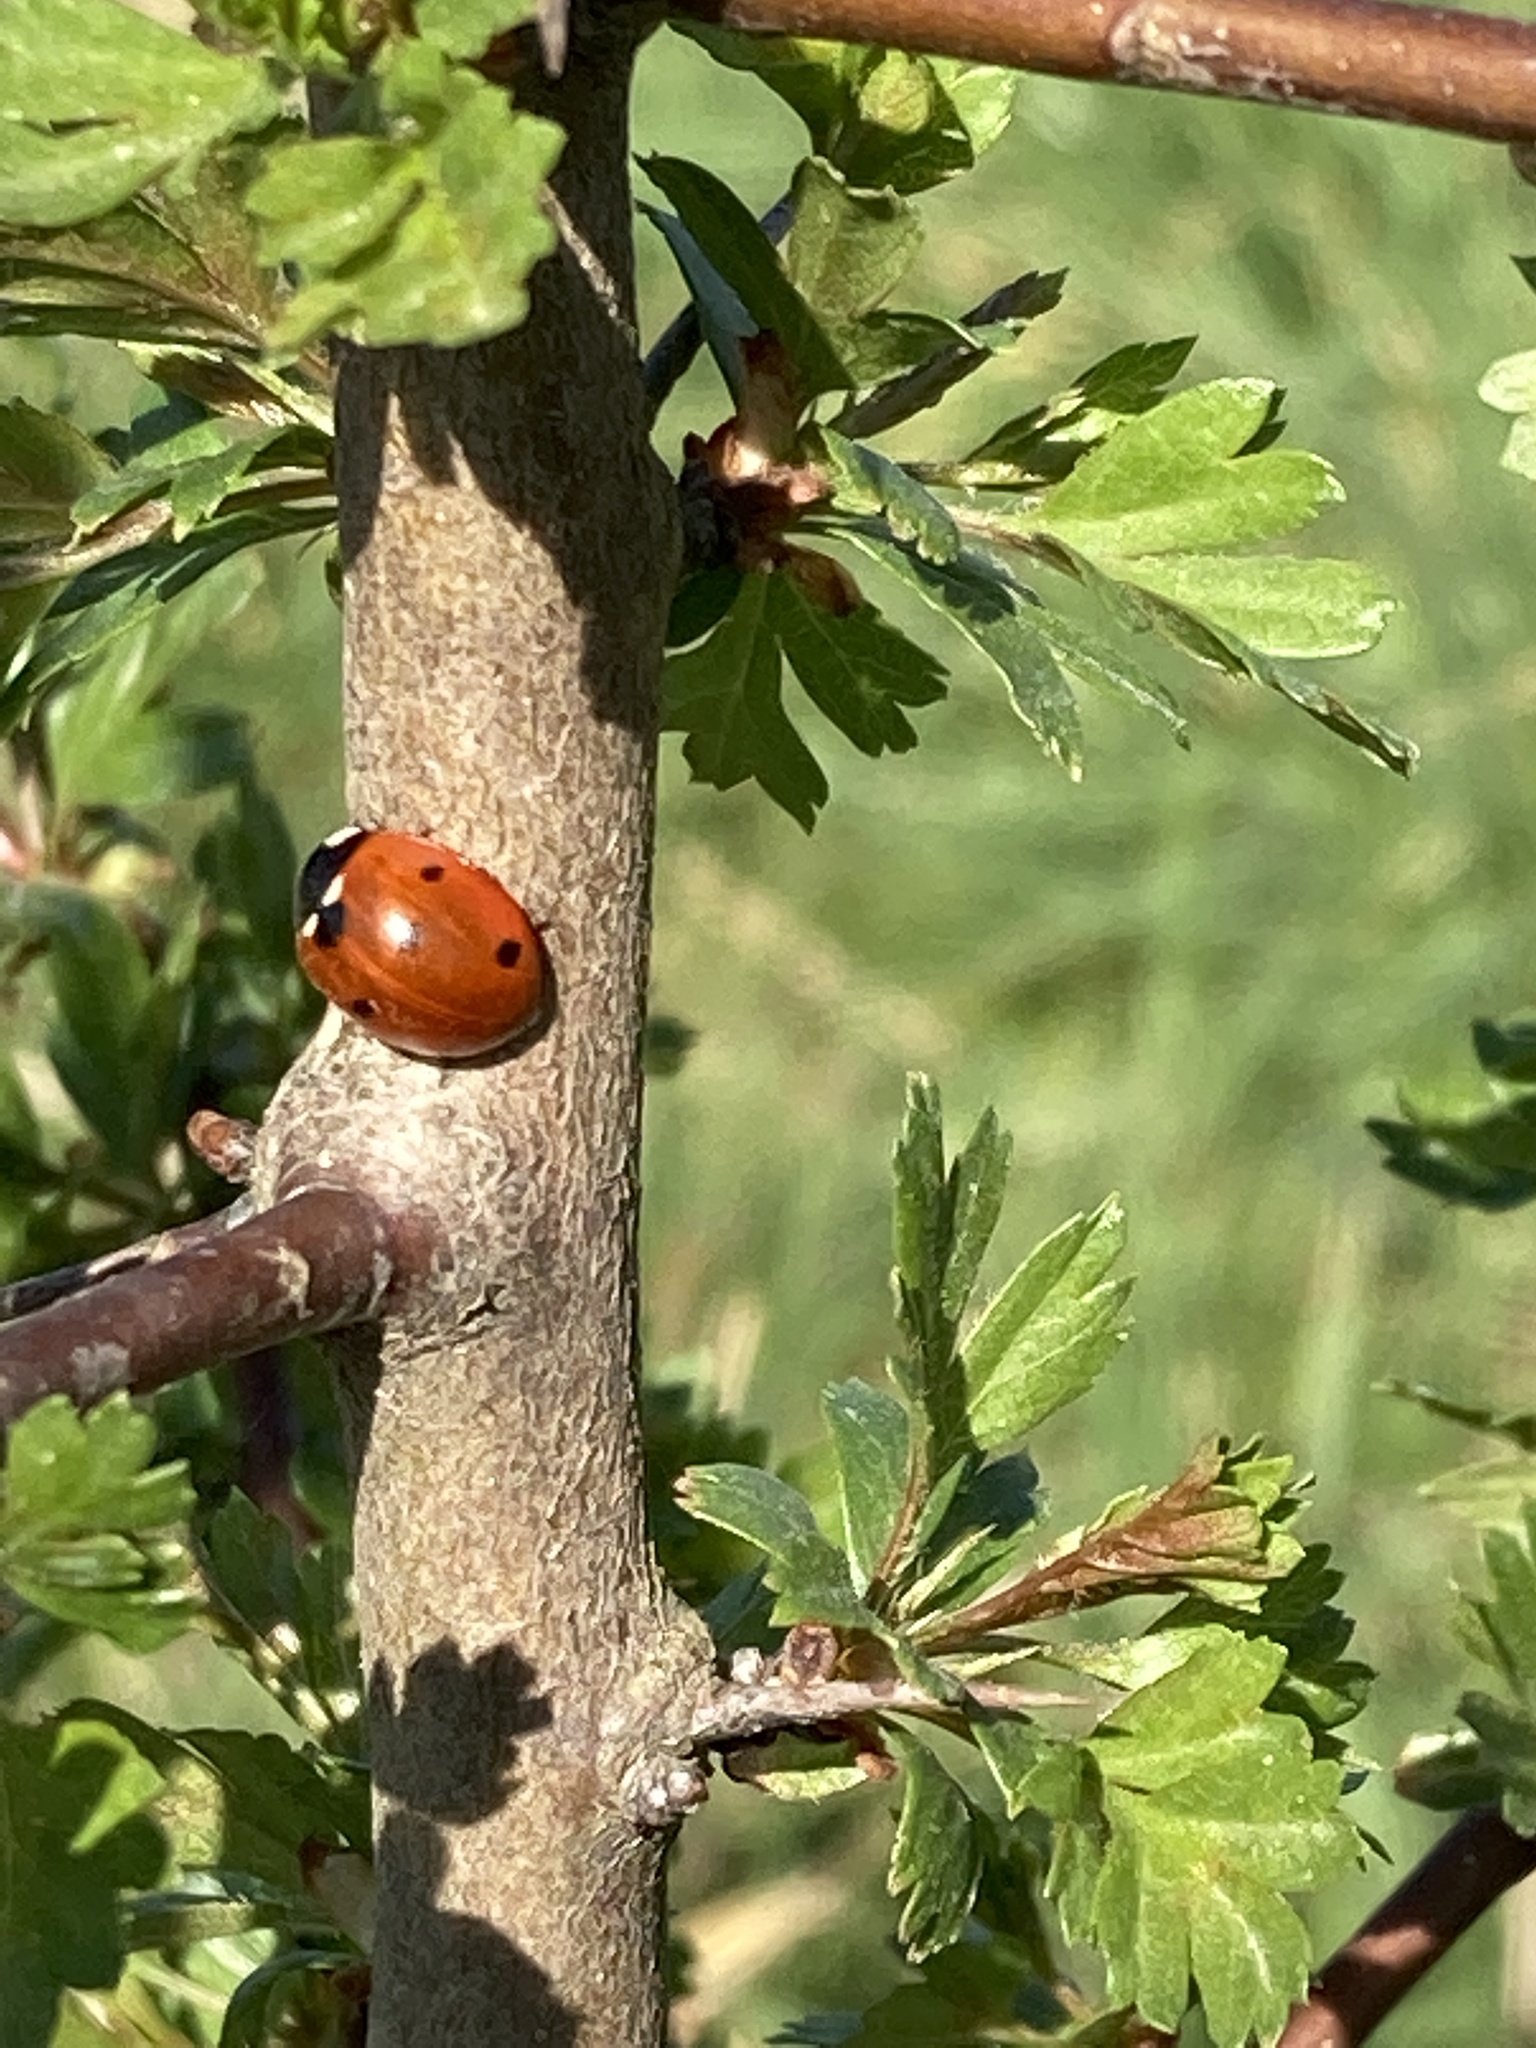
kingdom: Animalia
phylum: Arthropoda
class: Insecta
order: Coleoptera
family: Coccinellidae
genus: Coccinella
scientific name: Coccinella septempunctata
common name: Sevenspotted lady beetle
